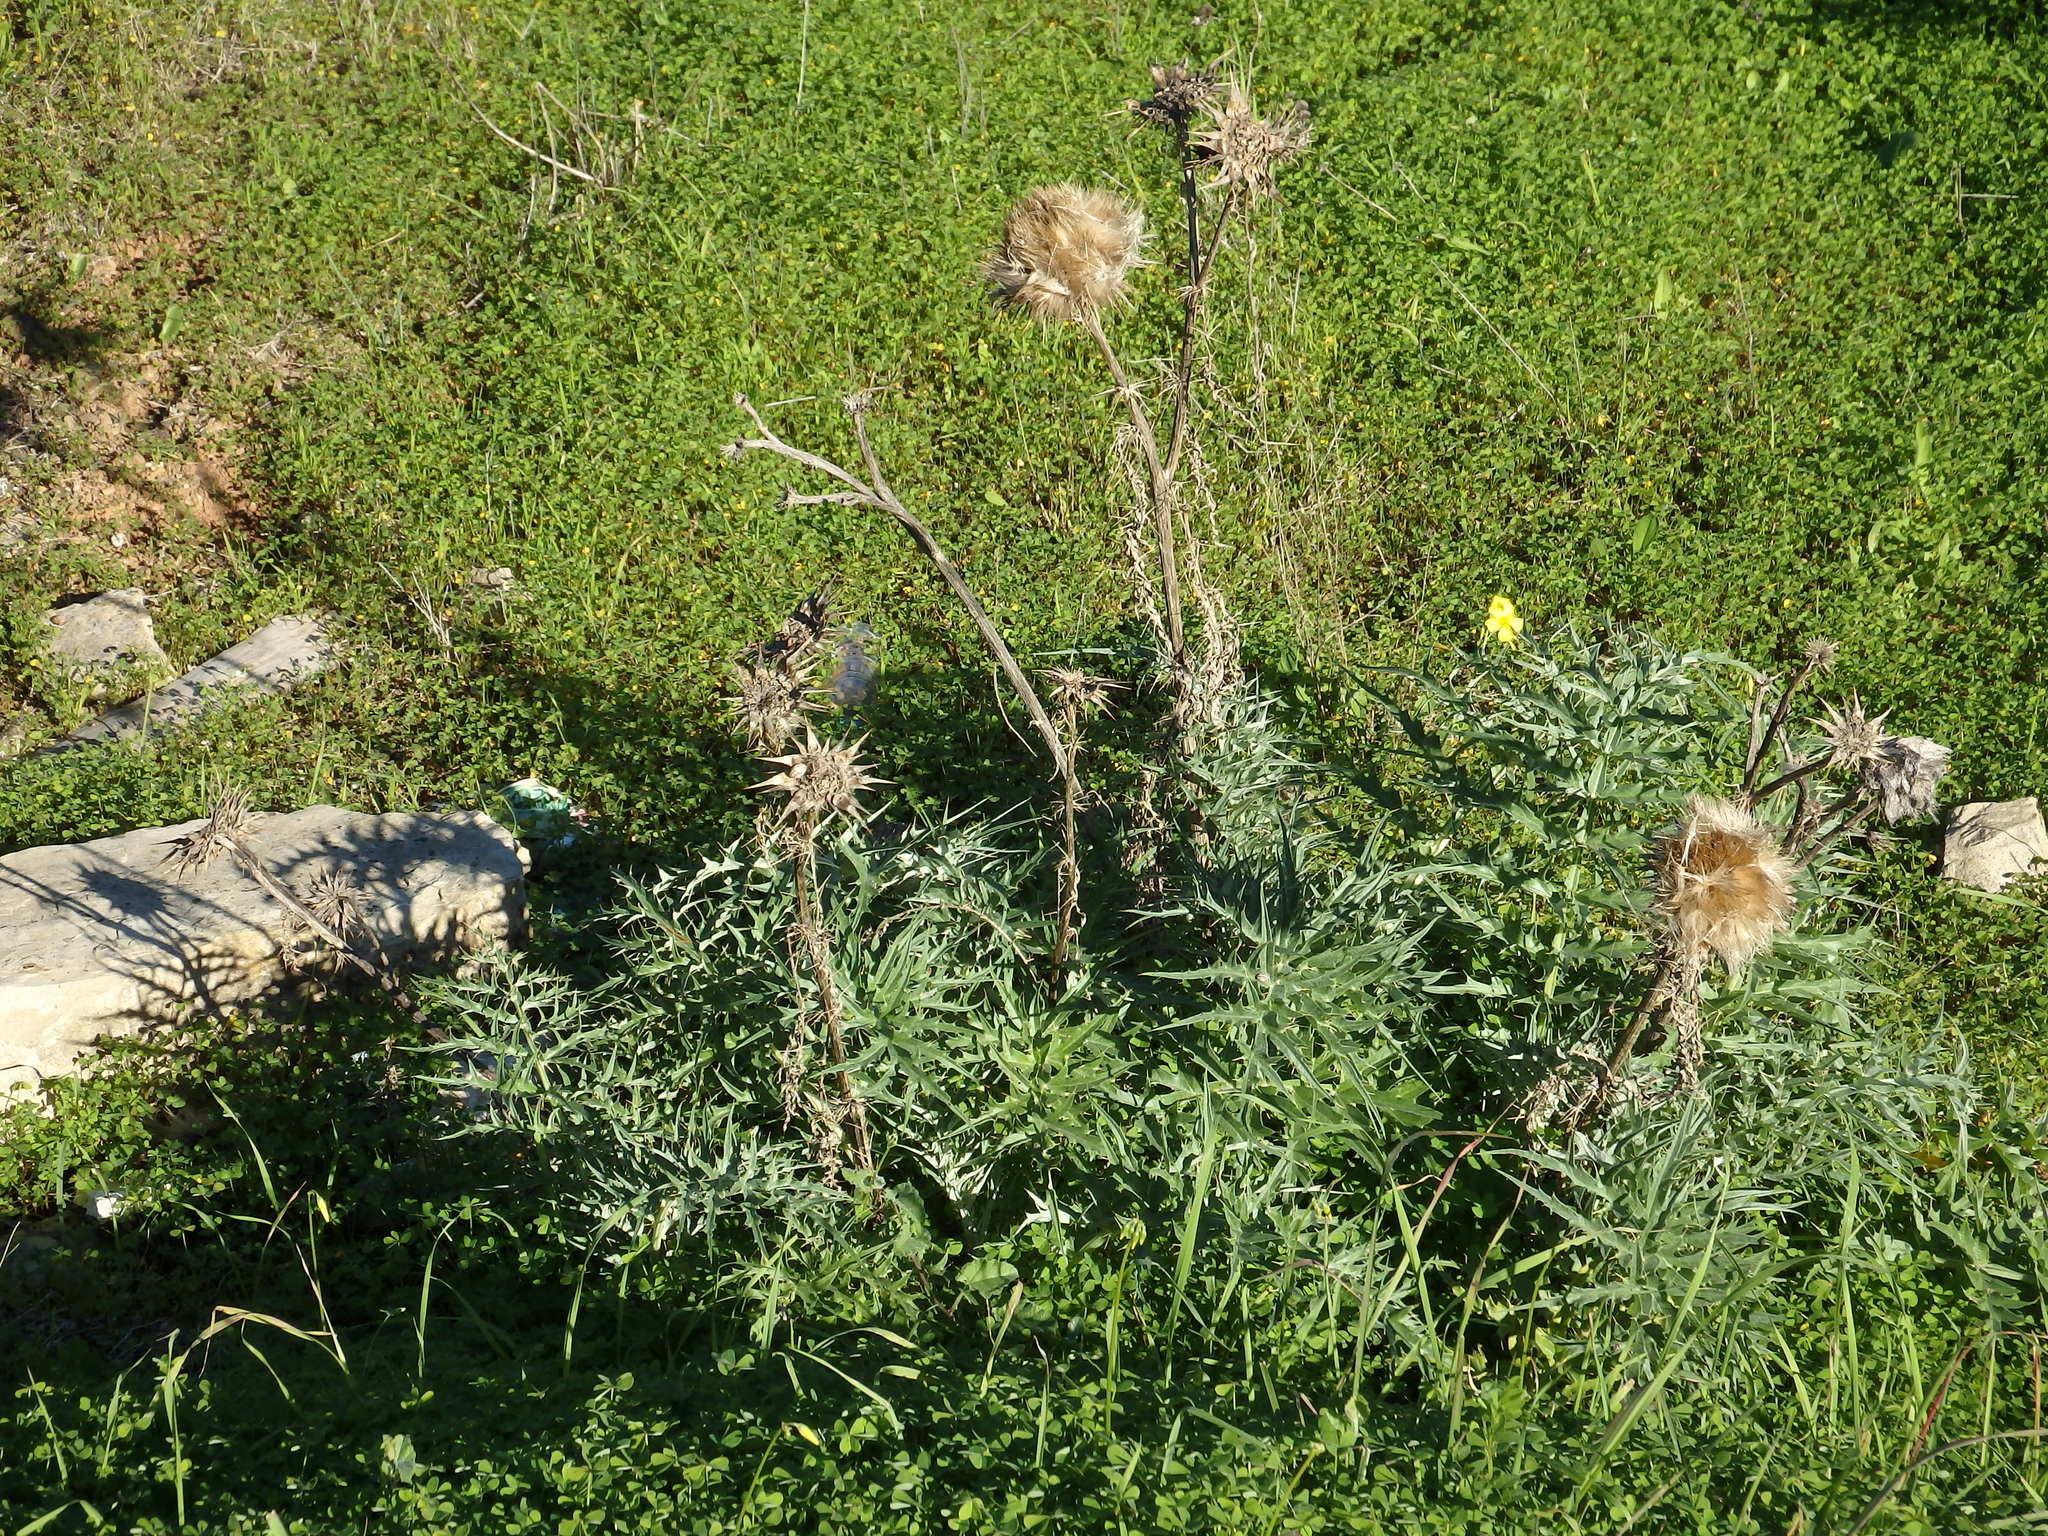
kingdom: Plantae
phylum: Tracheophyta
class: Magnoliopsida
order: Asterales
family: Asteraceae
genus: Cynara
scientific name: Cynara cardunculus
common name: Globe artichoke
